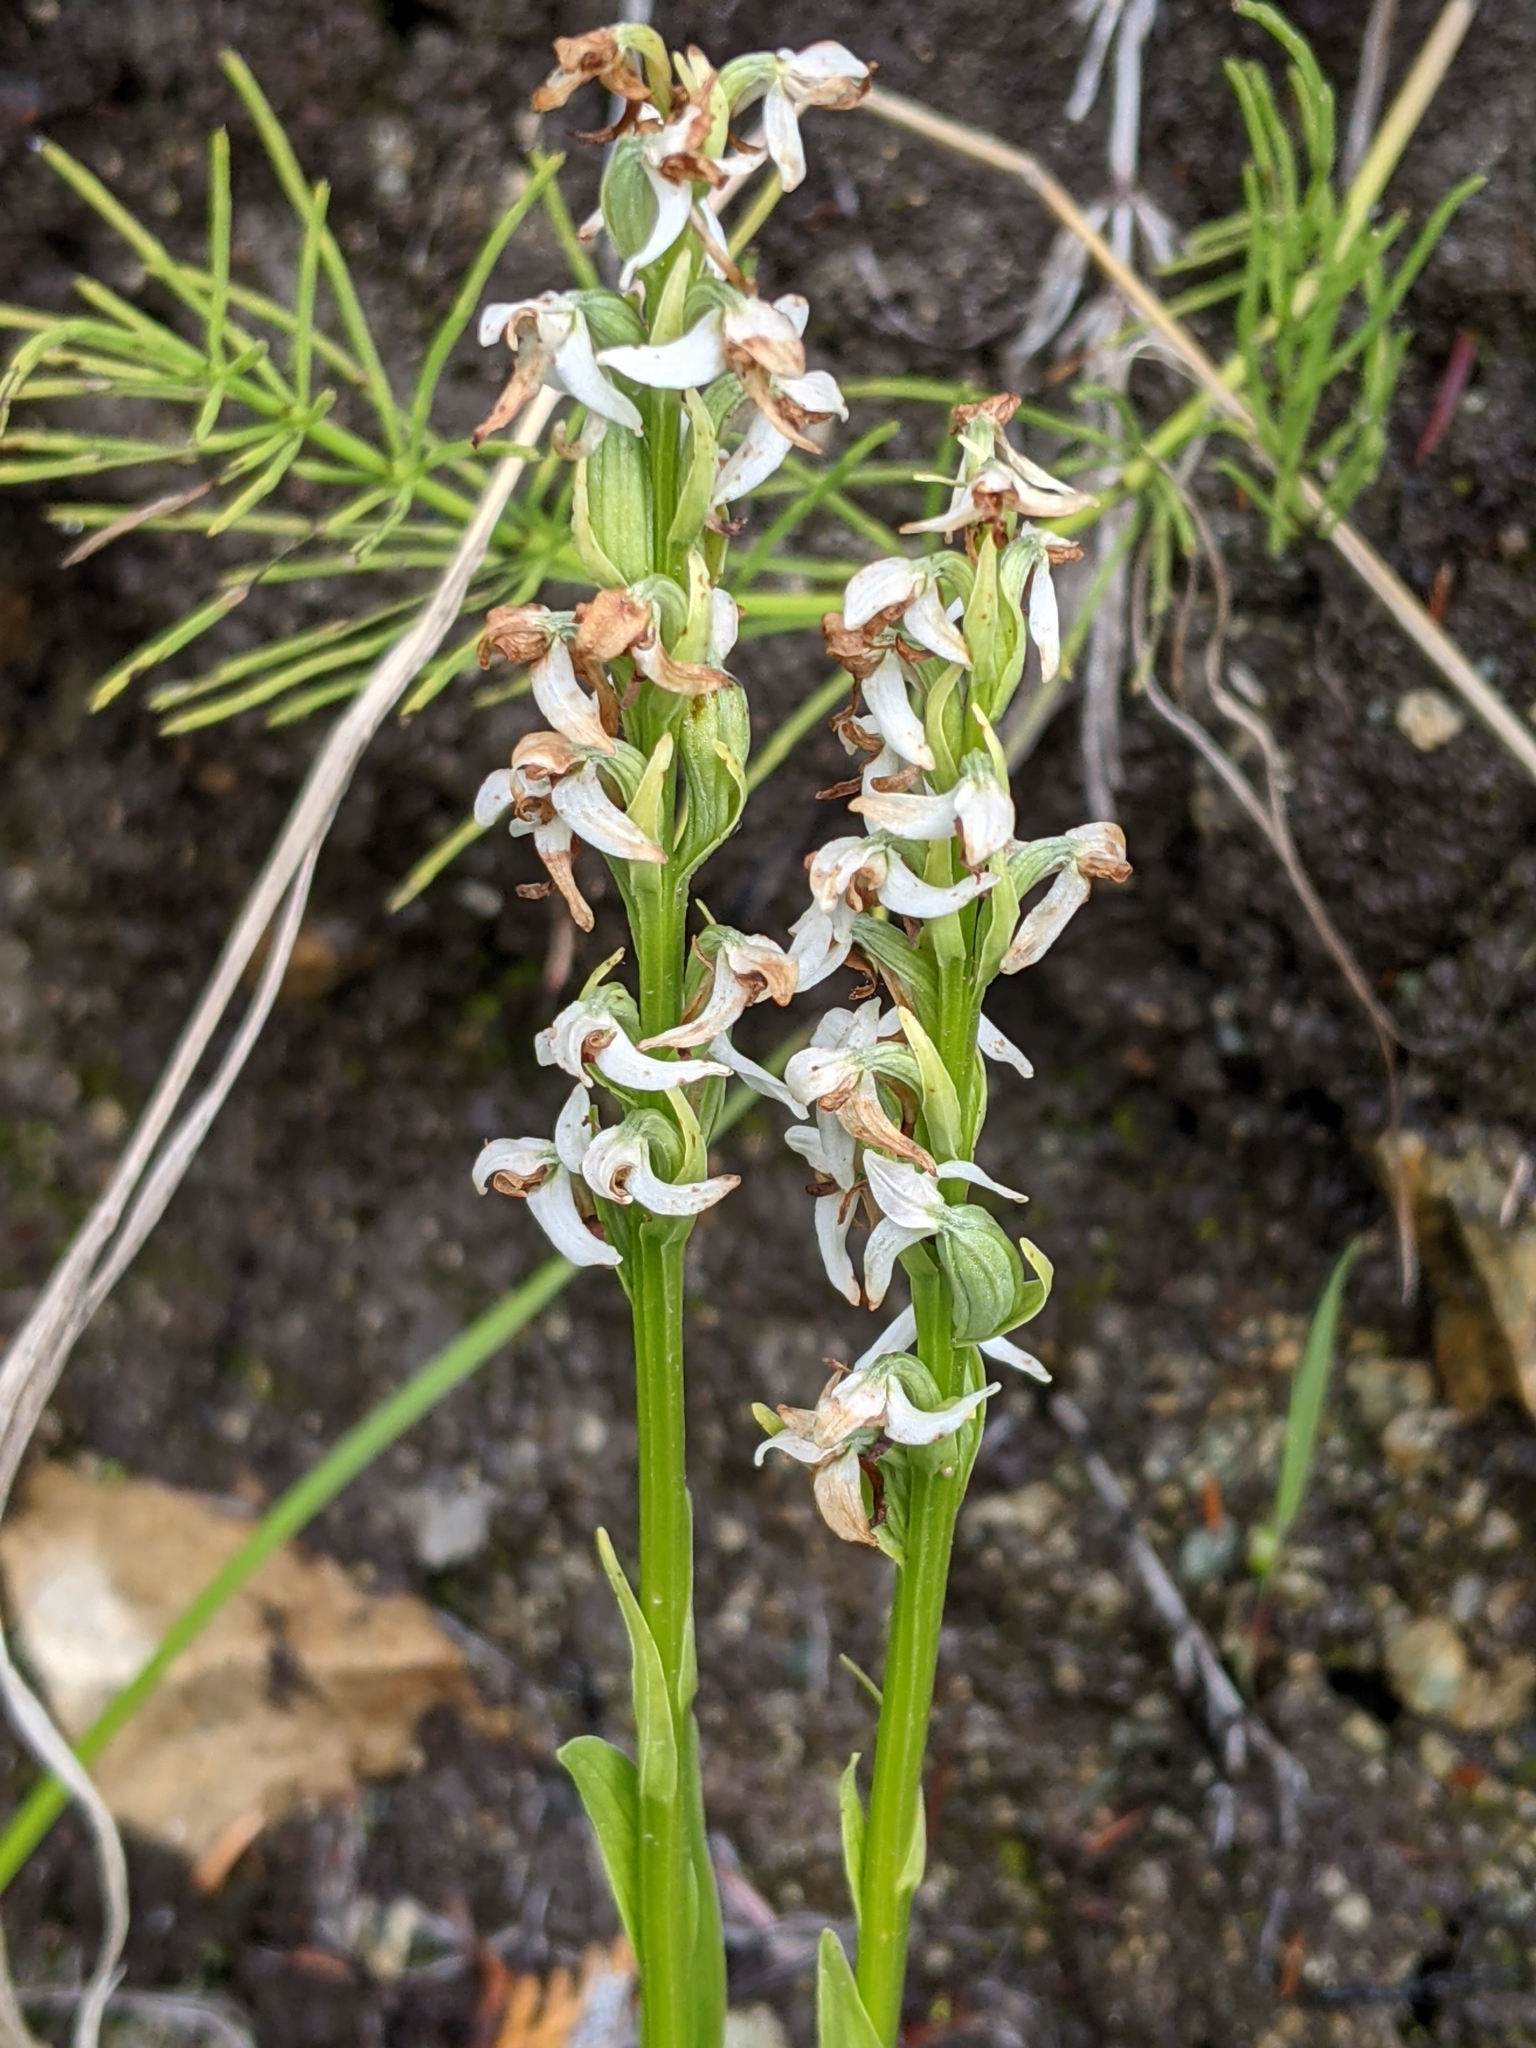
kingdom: Plantae
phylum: Tracheophyta
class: Liliopsida
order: Asparagales
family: Orchidaceae
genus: Platanthera
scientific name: Platanthera dilatata
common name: Bog candles
